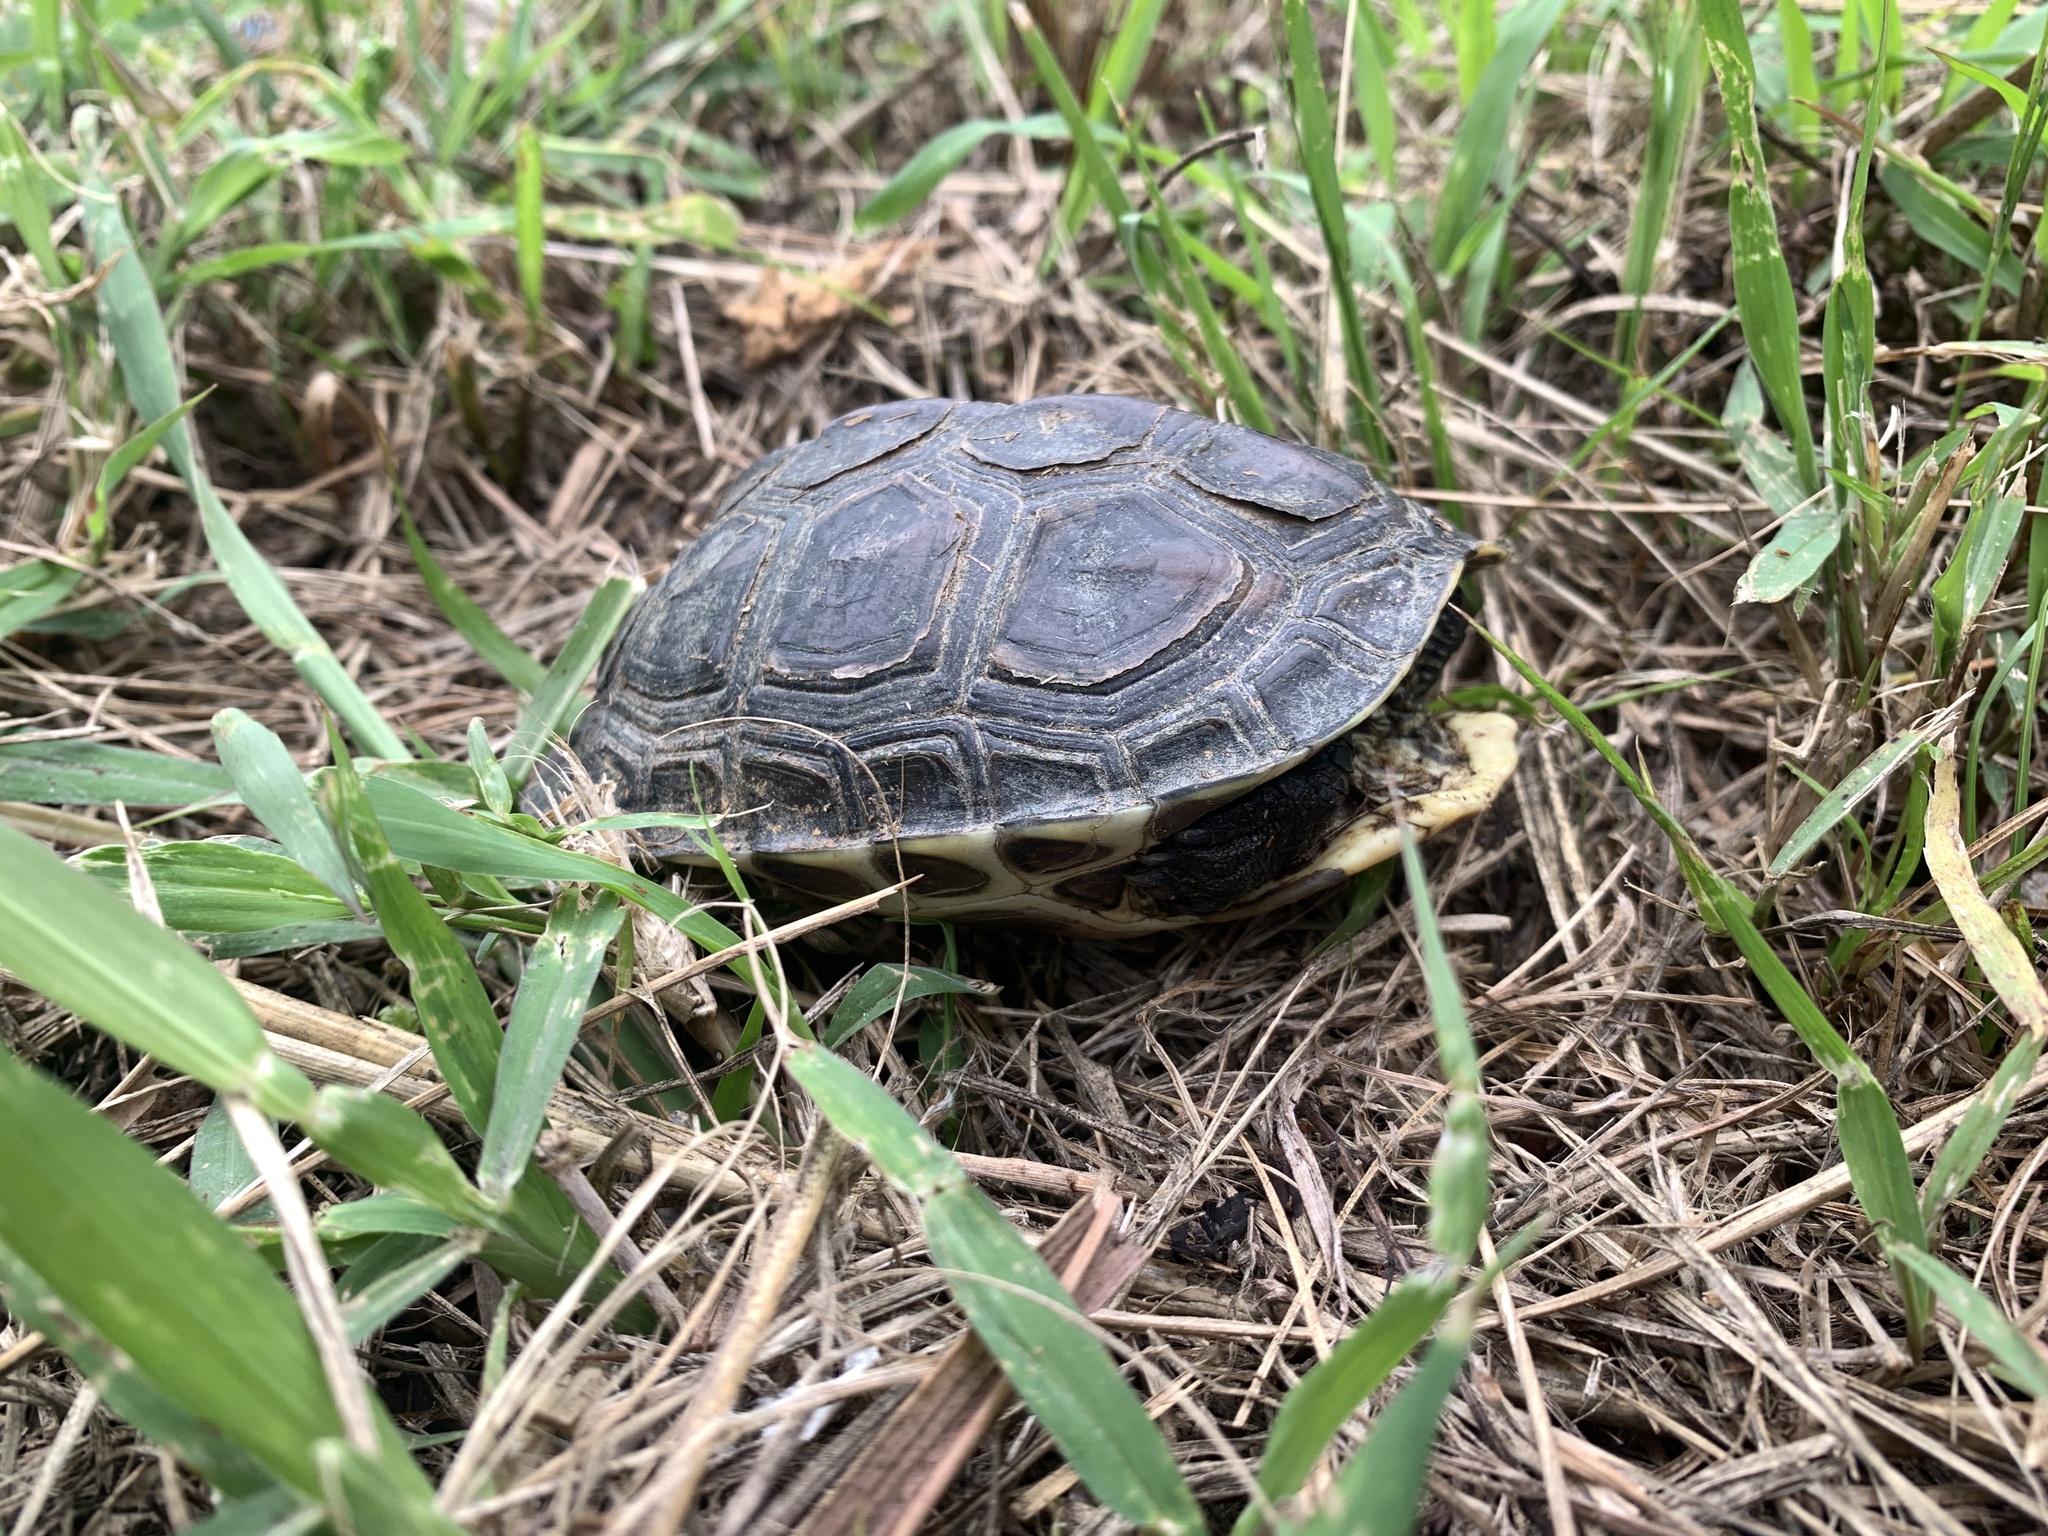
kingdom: Animalia
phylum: Chordata
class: Testudines
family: Geoemydidae
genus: Mauremys
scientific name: Mauremys sinensis
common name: Chinese stripe-necked turtle
